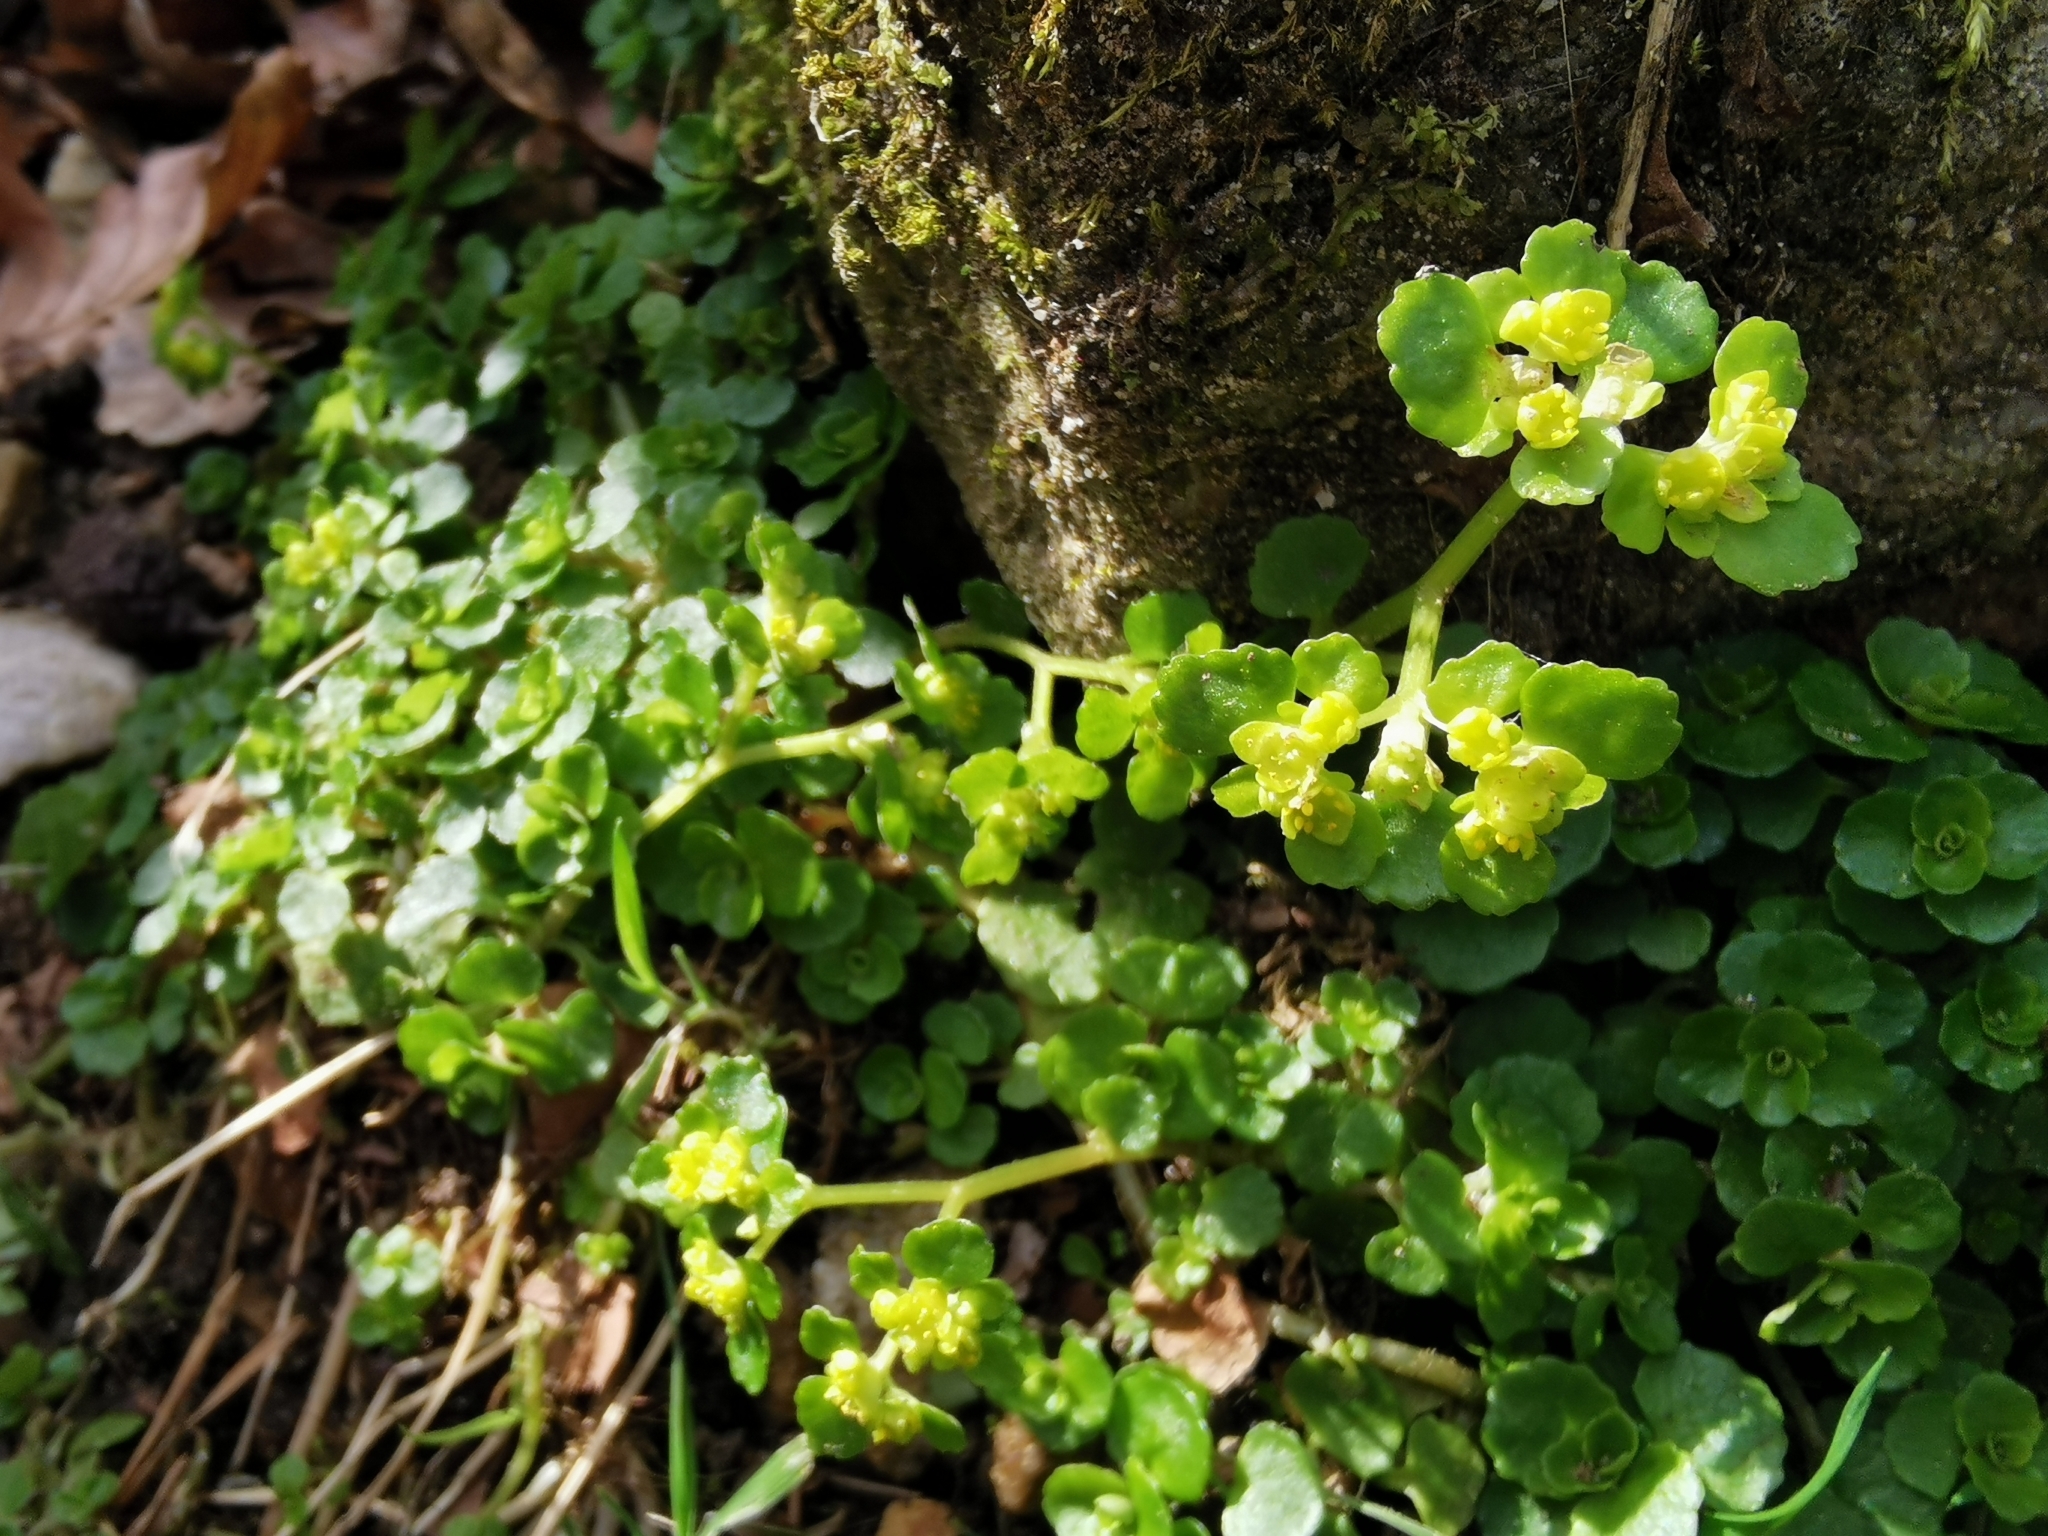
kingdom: Plantae
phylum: Tracheophyta
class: Magnoliopsida
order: Saxifragales
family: Saxifragaceae
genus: Chrysosplenium
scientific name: Chrysosplenium oppositifolium
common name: Opposite-leaved golden-saxifrage
